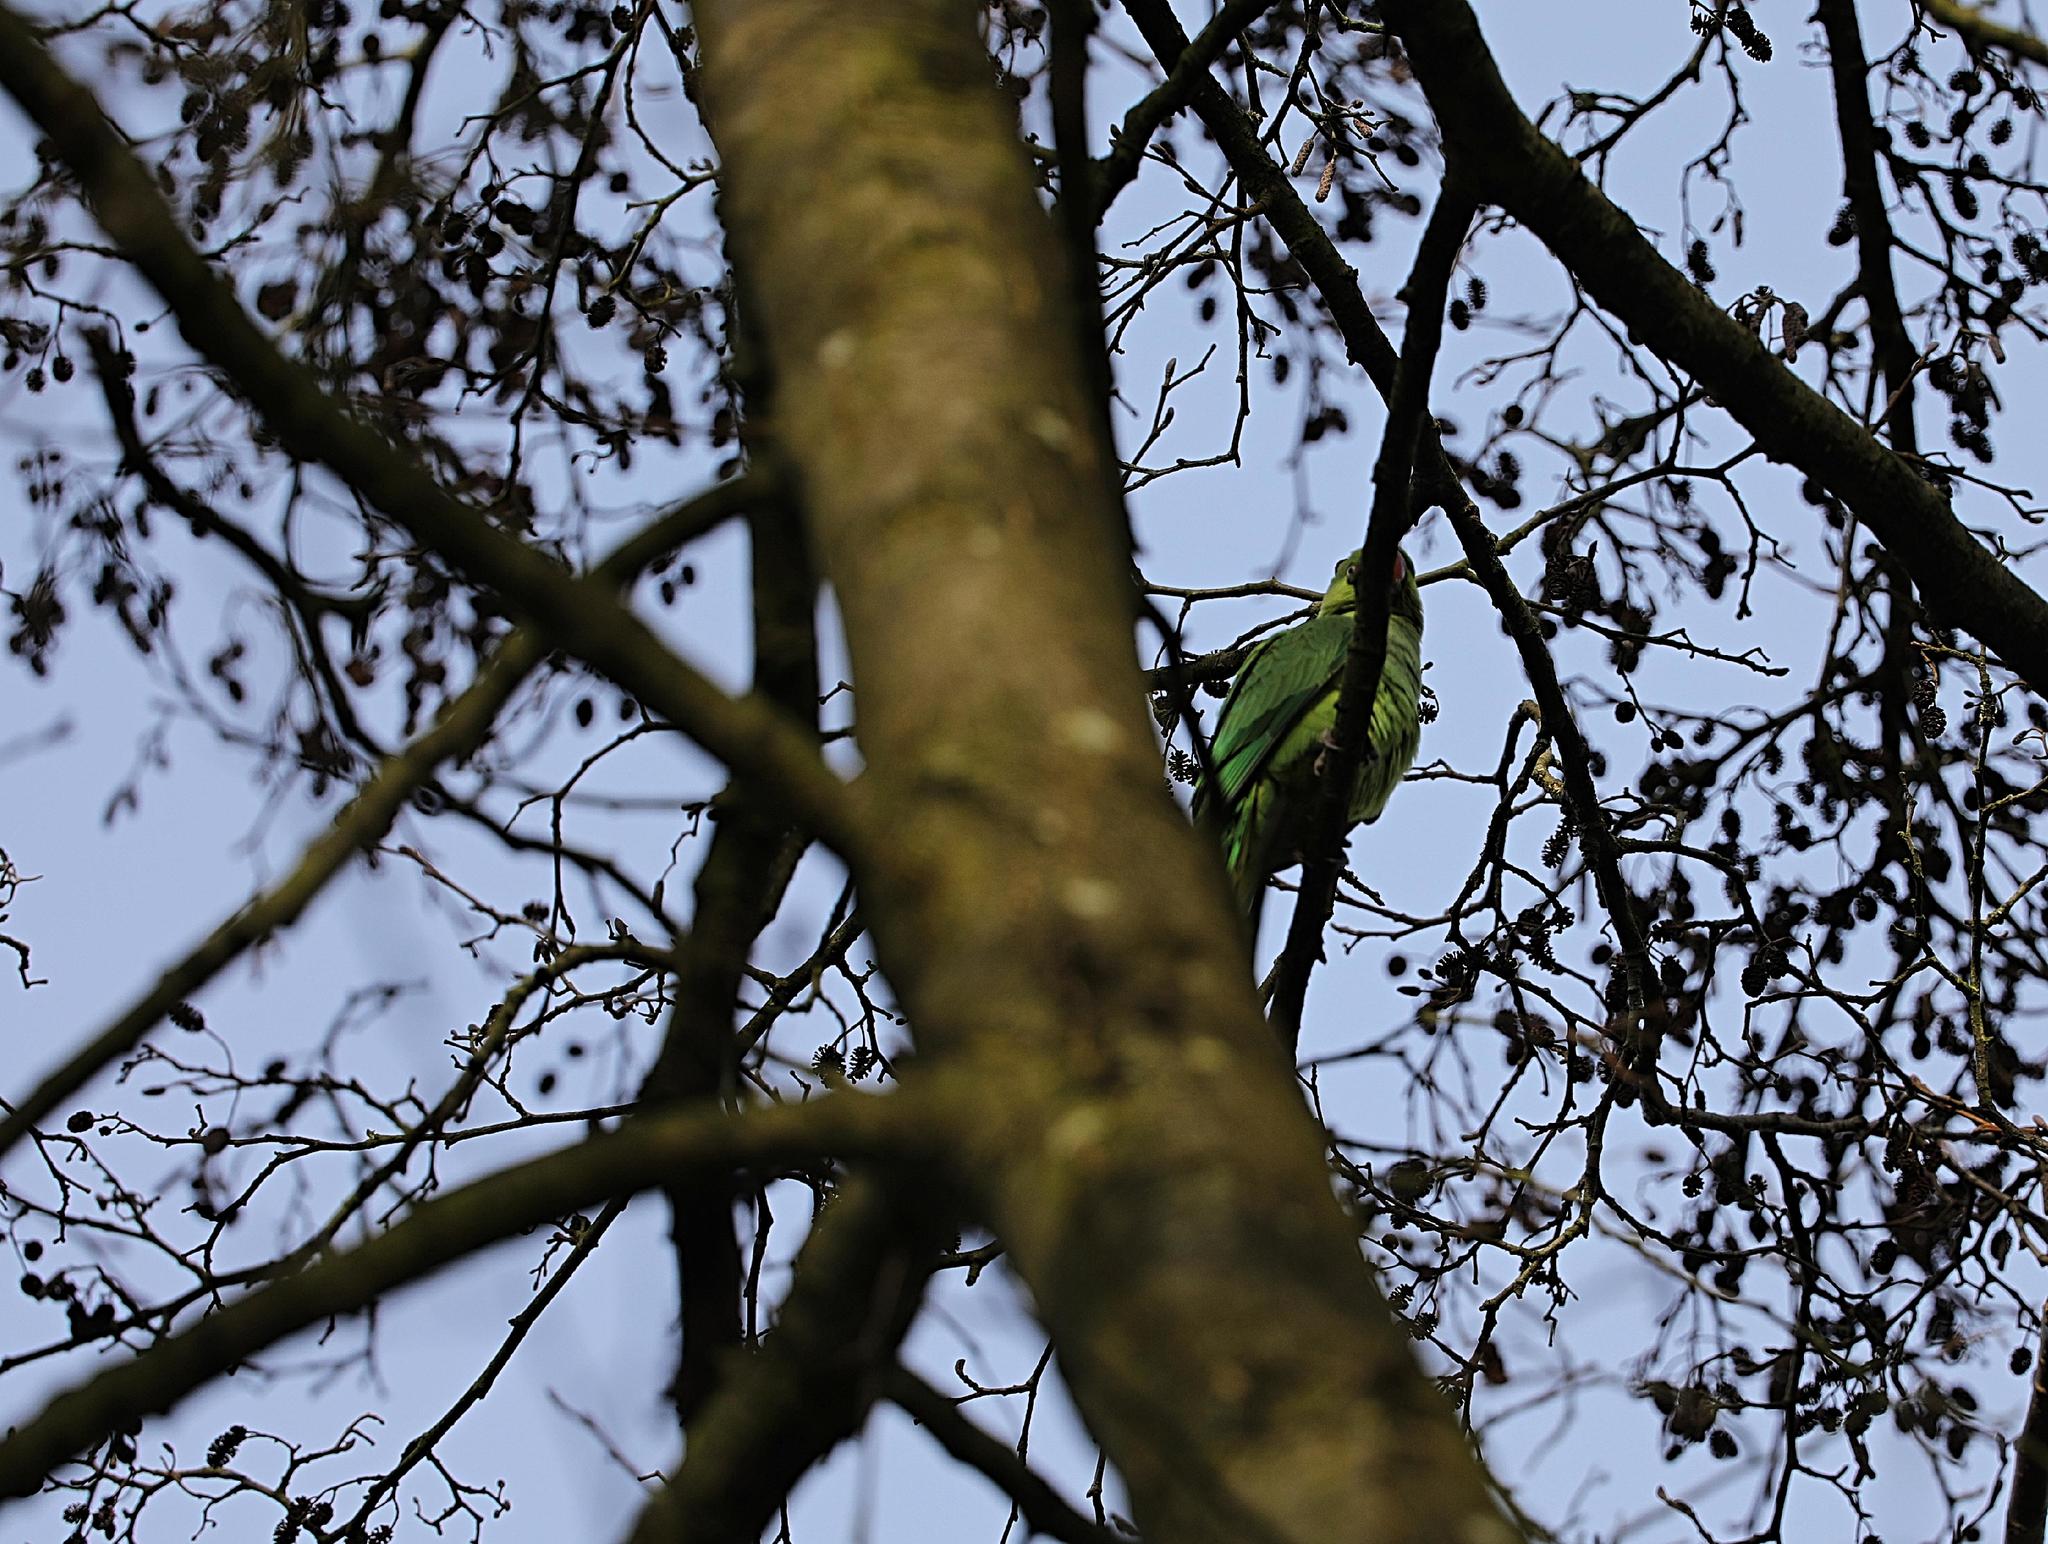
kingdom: Animalia
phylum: Chordata
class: Aves
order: Psittaciformes
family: Psittacidae
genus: Psittacula
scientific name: Psittacula krameri
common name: Rose-ringed parakeet
